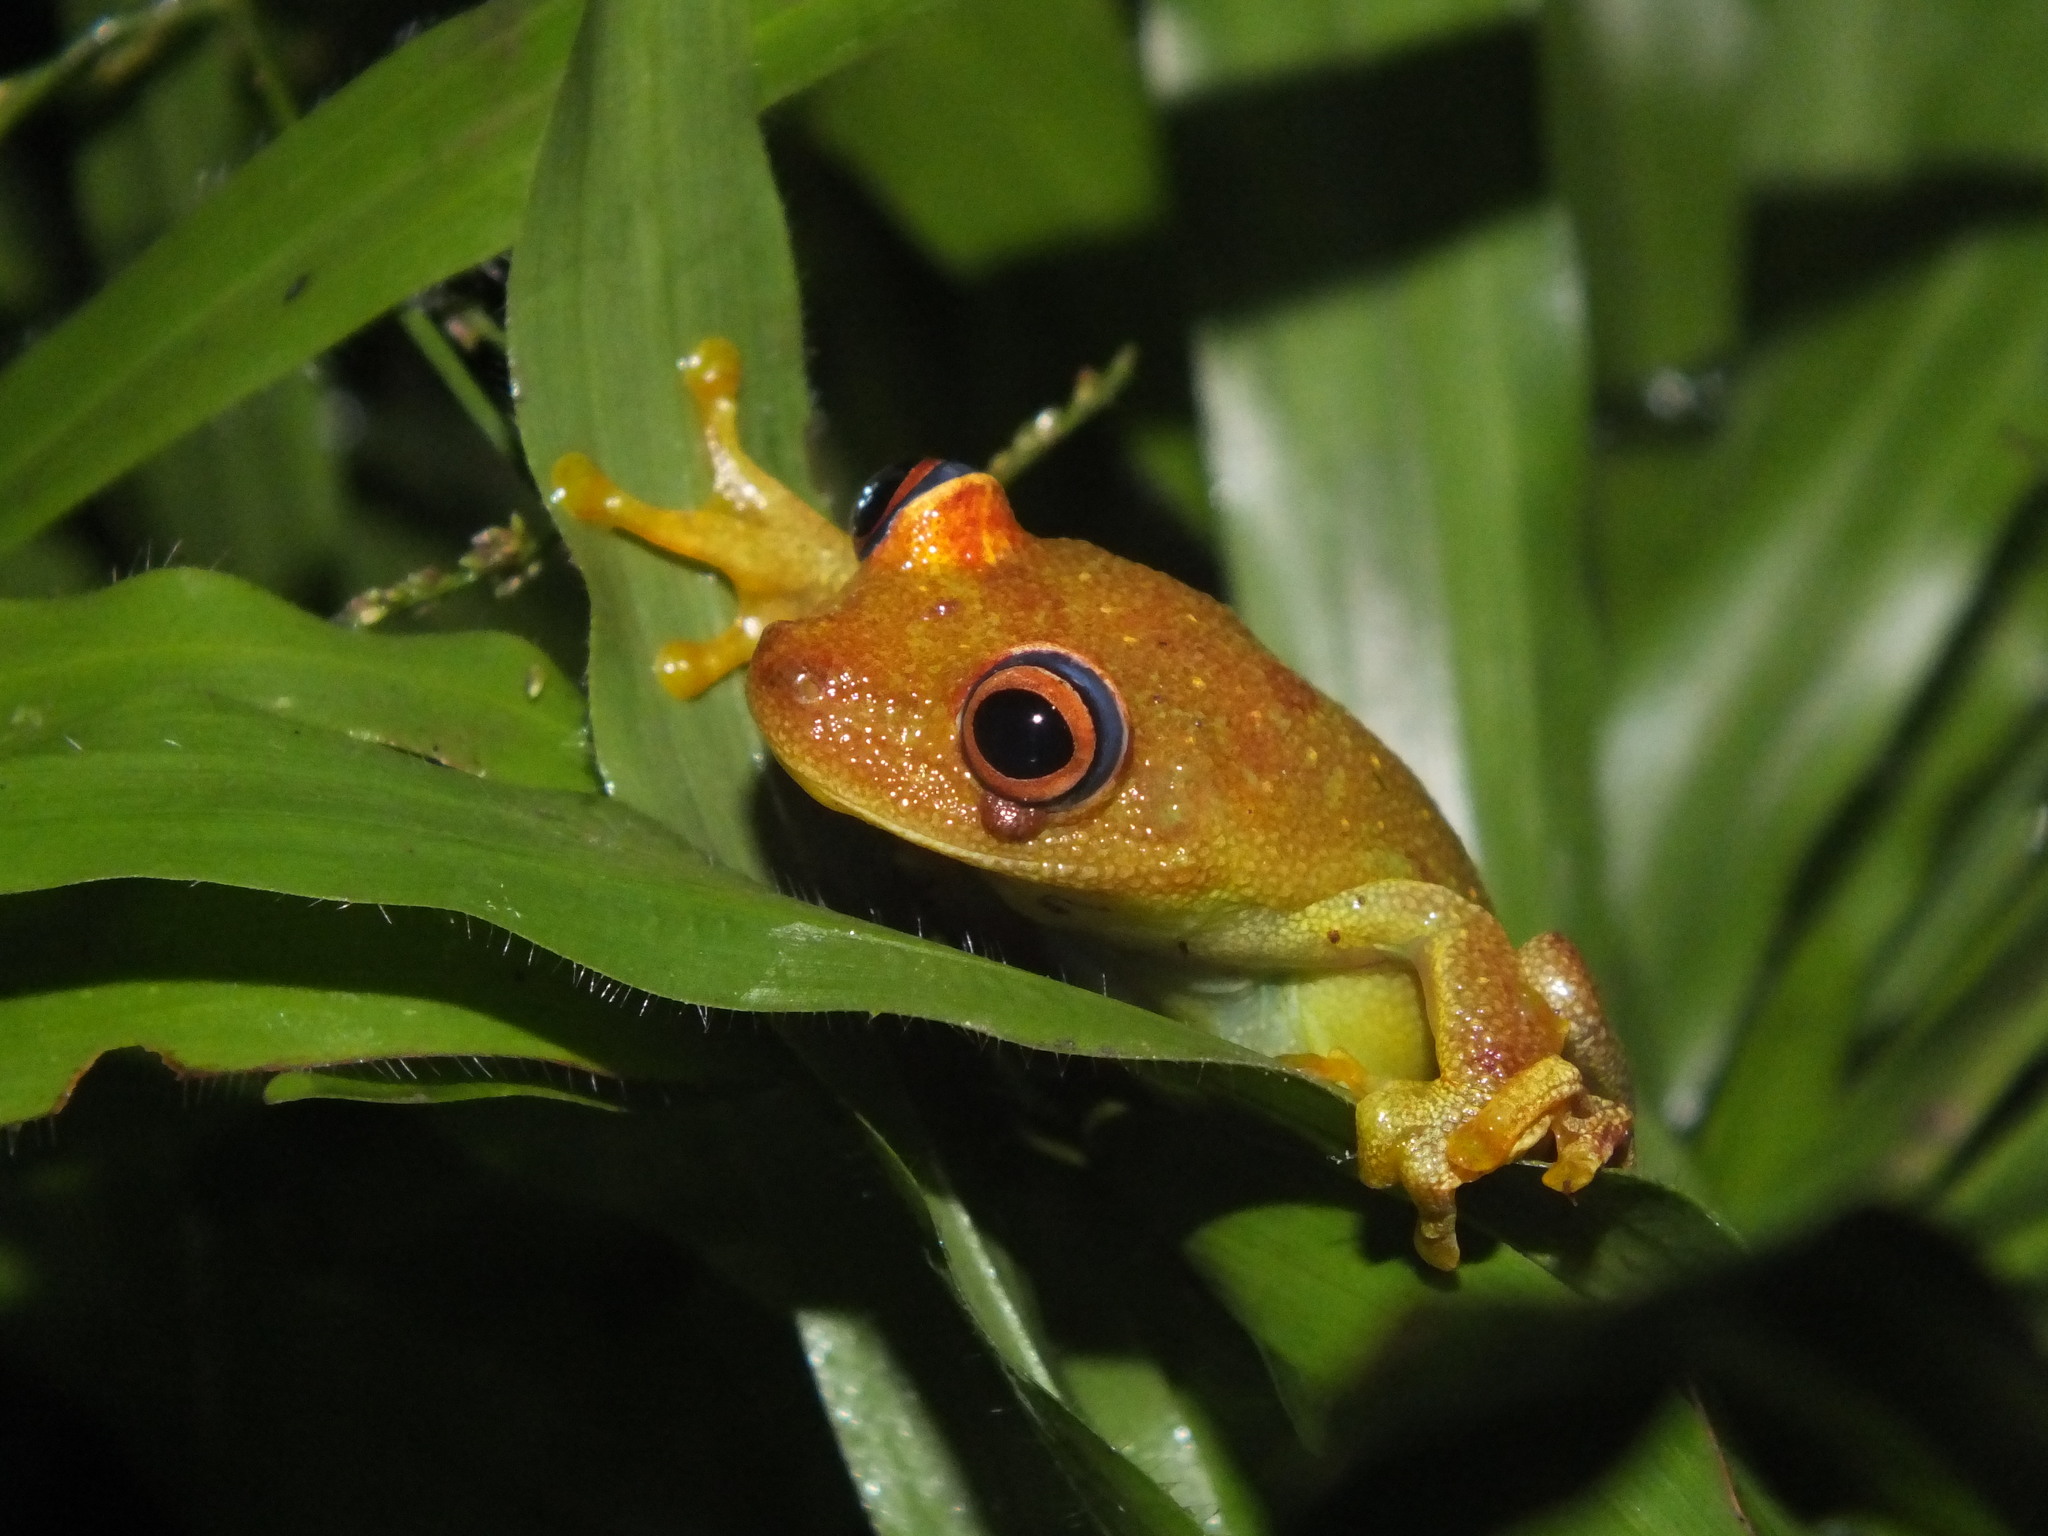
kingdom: Animalia
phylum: Chordata
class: Amphibia
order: Anura
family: Hylidae
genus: Boana
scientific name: Boana cinerascens
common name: Demerara falls treefrog
